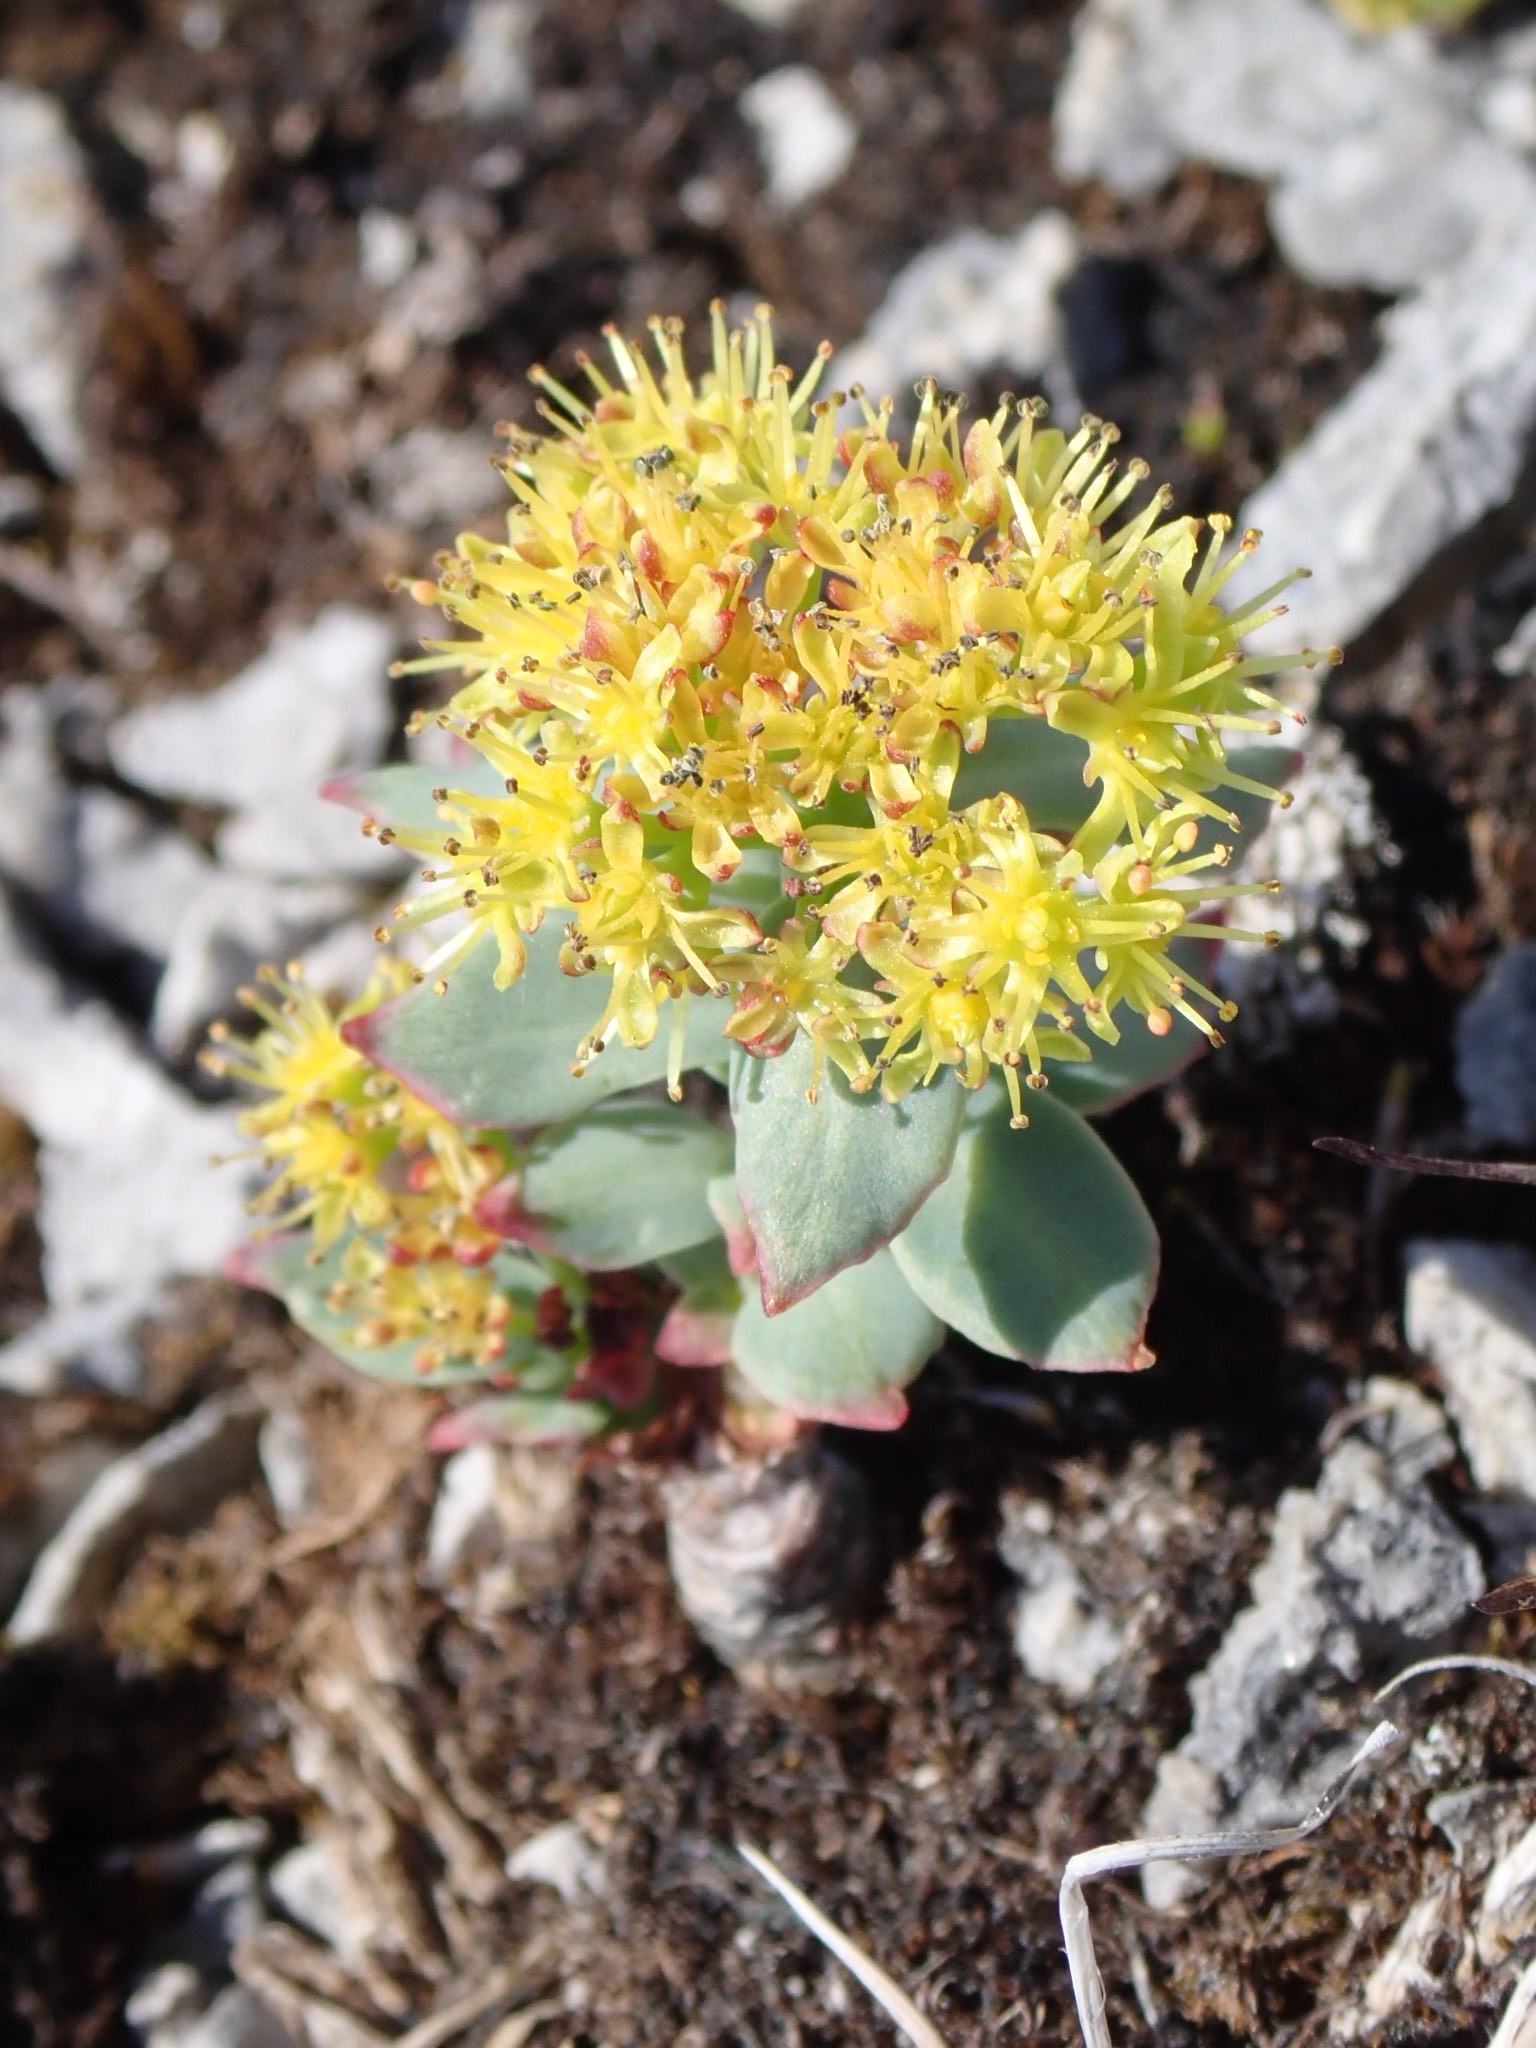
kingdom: Plantae
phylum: Tracheophyta
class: Magnoliopsida
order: Saxifragales
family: Crassulaceae
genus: Rhodiola
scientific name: Rhodiola rosea
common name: Roseroot
